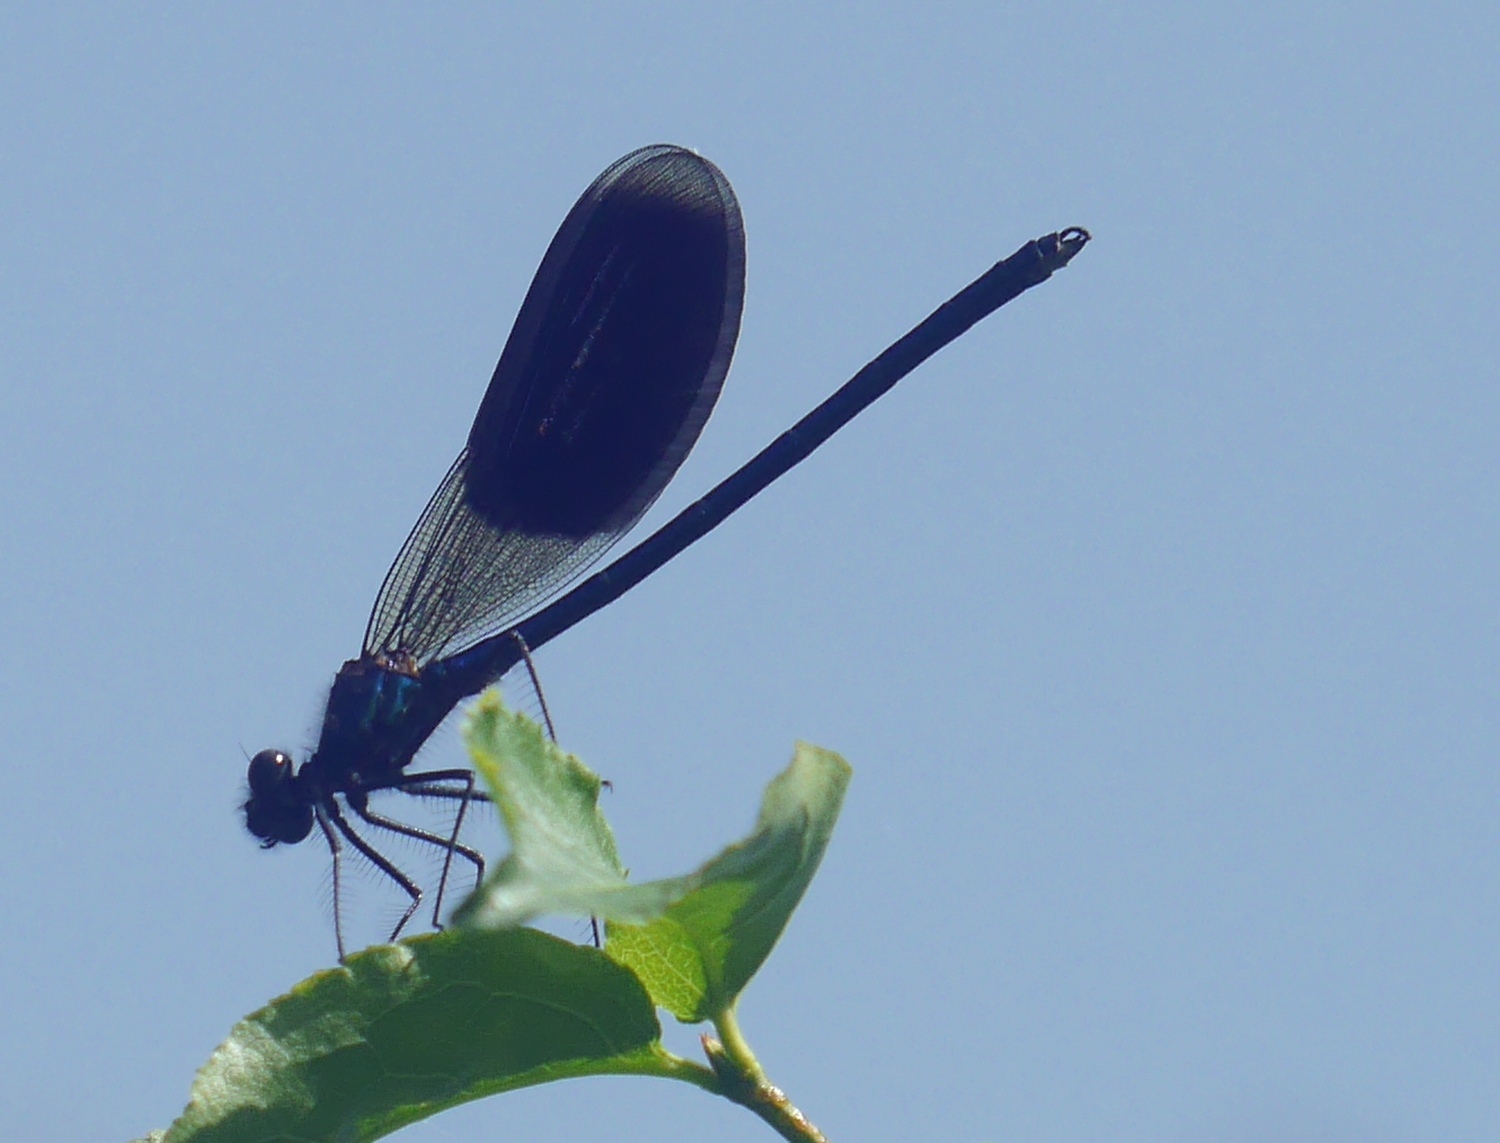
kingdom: Animalia
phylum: Arthropoda
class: Insecta
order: Odonata
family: Calopterygidae
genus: Calopteryx
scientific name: Calopteryx splendens
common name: Banded demoiselle
